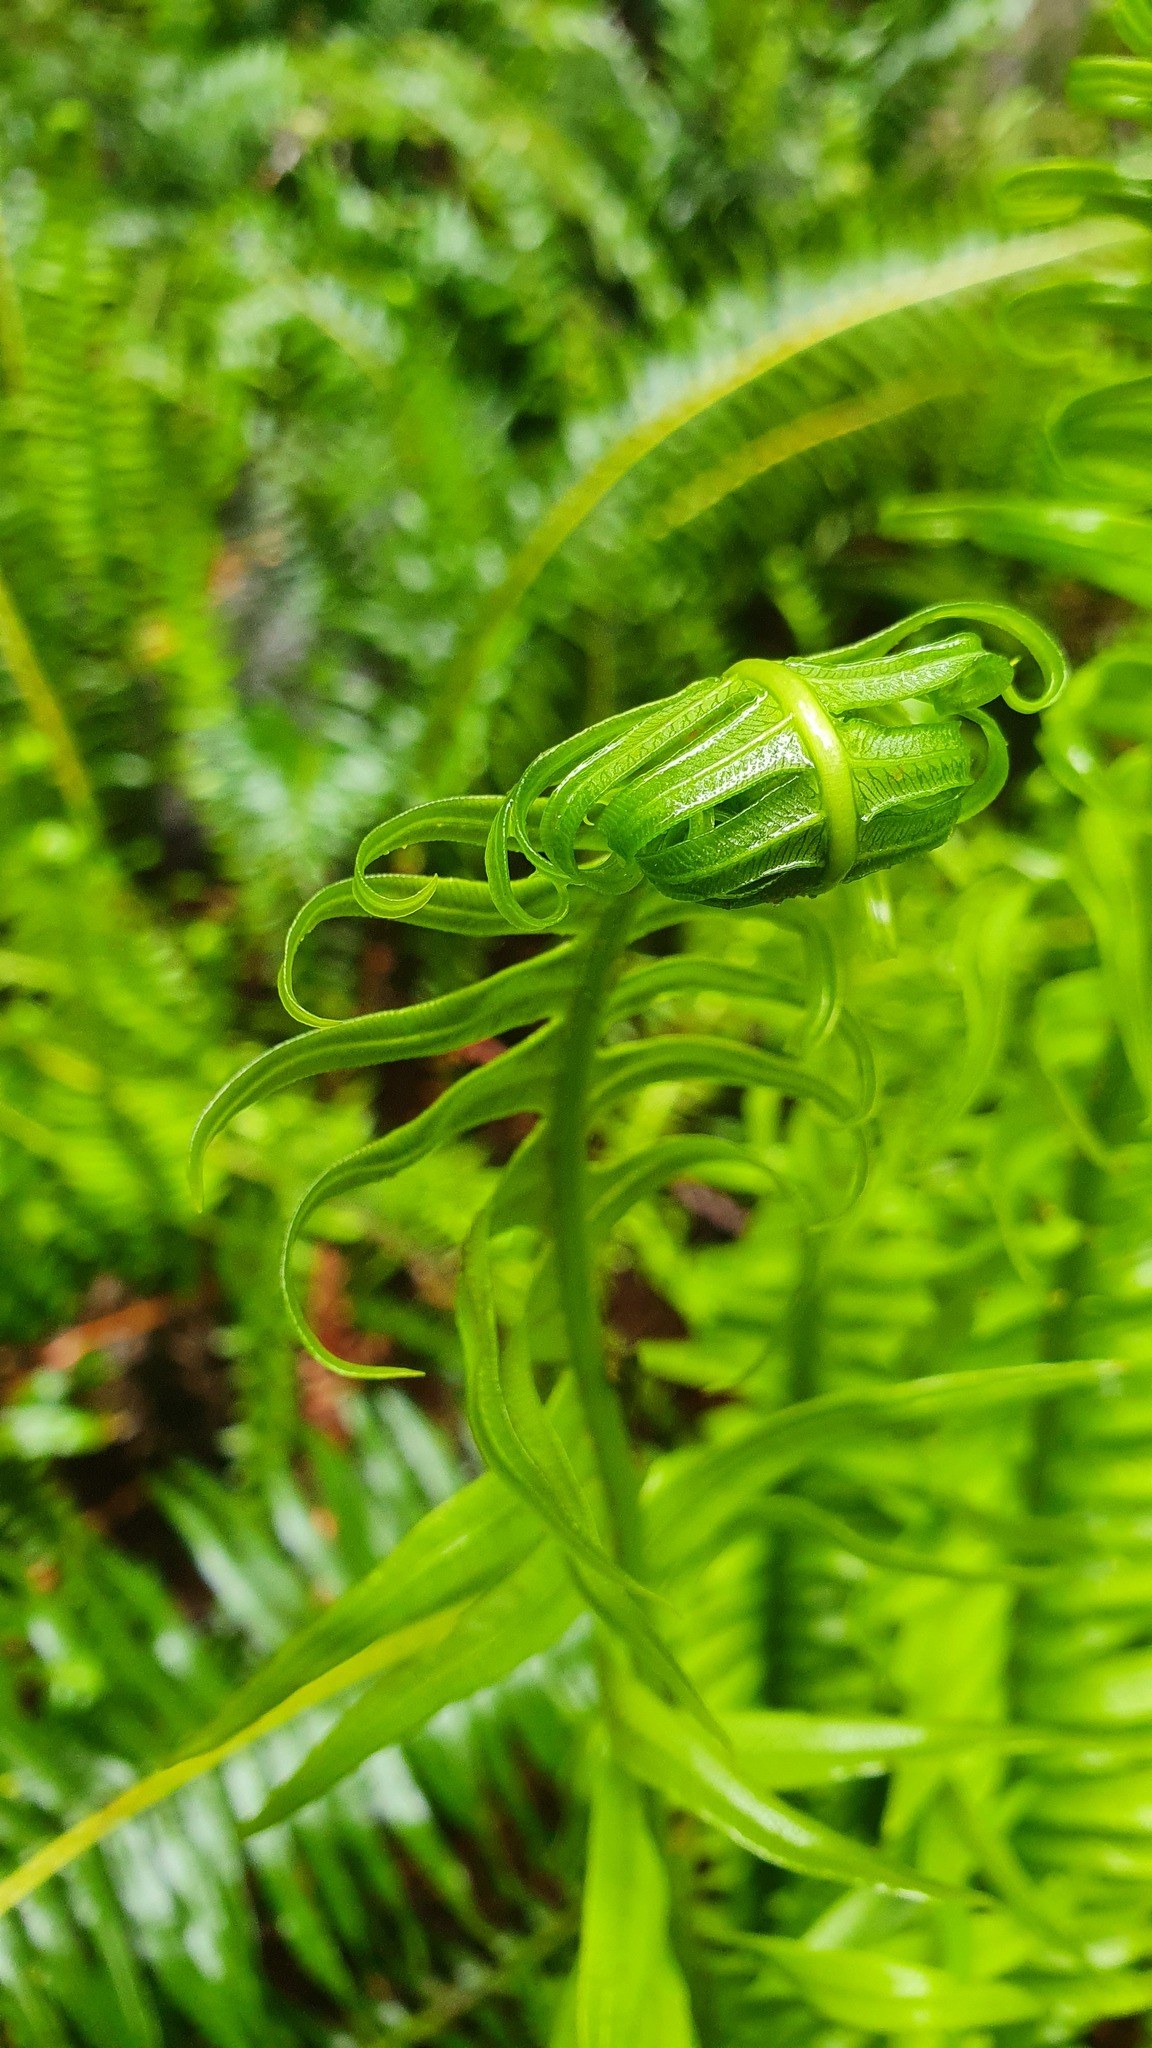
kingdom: Plantae
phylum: Tracheophyta
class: Polypodiopsida
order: Polypodiales
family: Blechnaceae
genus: Lomaria
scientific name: Lomaria nuda
